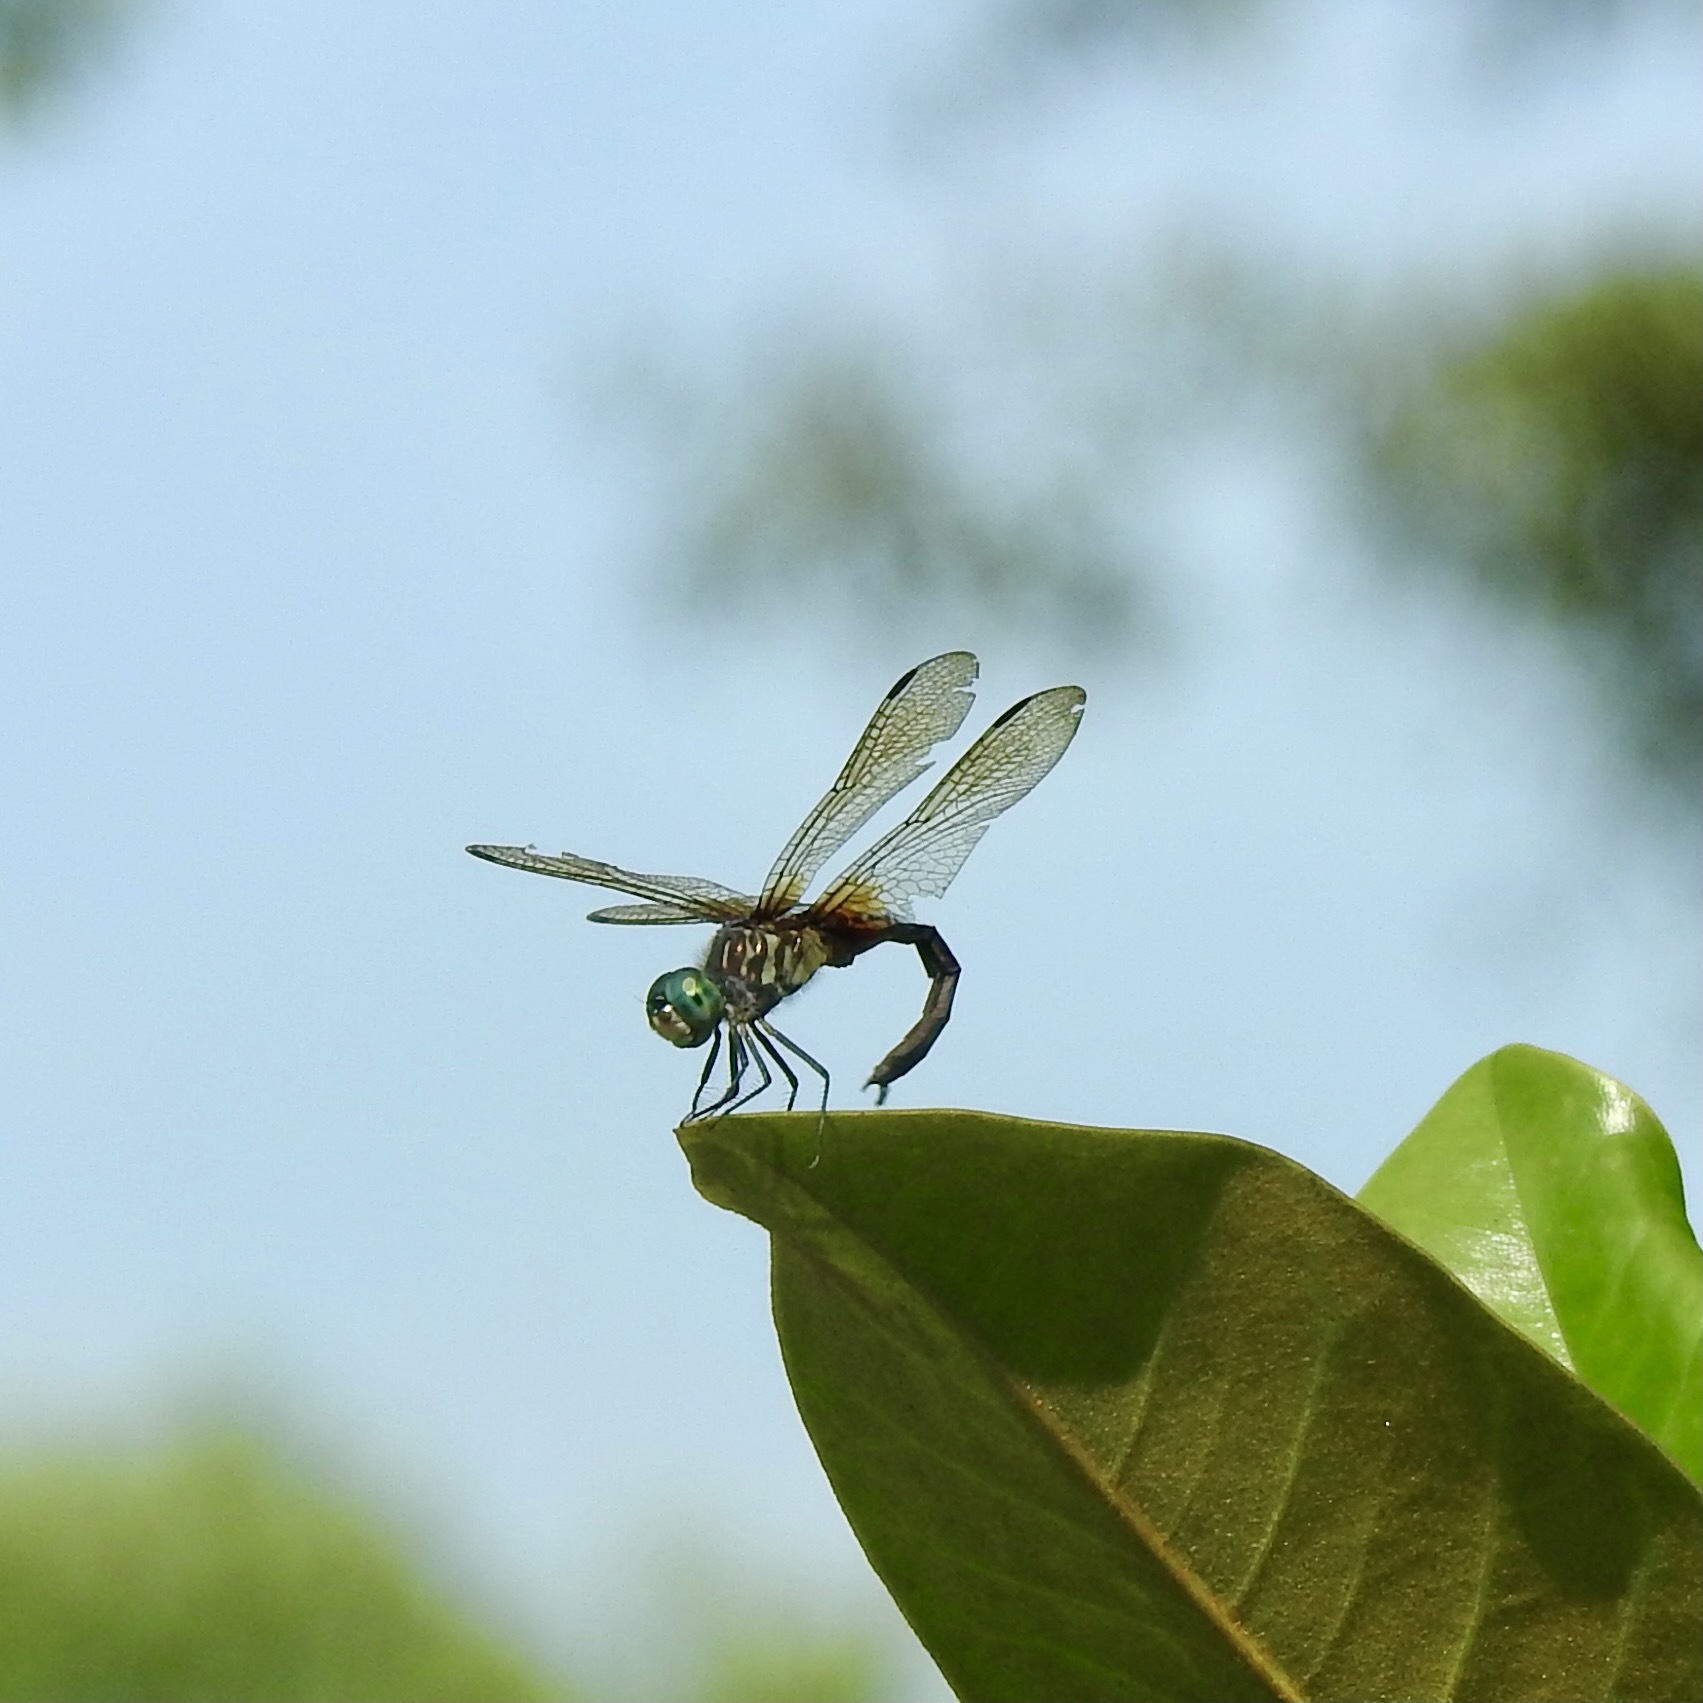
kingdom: Animalia
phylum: Arthropoda
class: Insecta
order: Odonata
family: Libellulidae
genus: Pachydiplax
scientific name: Pachydiplax longipennis
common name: Blue dasher
